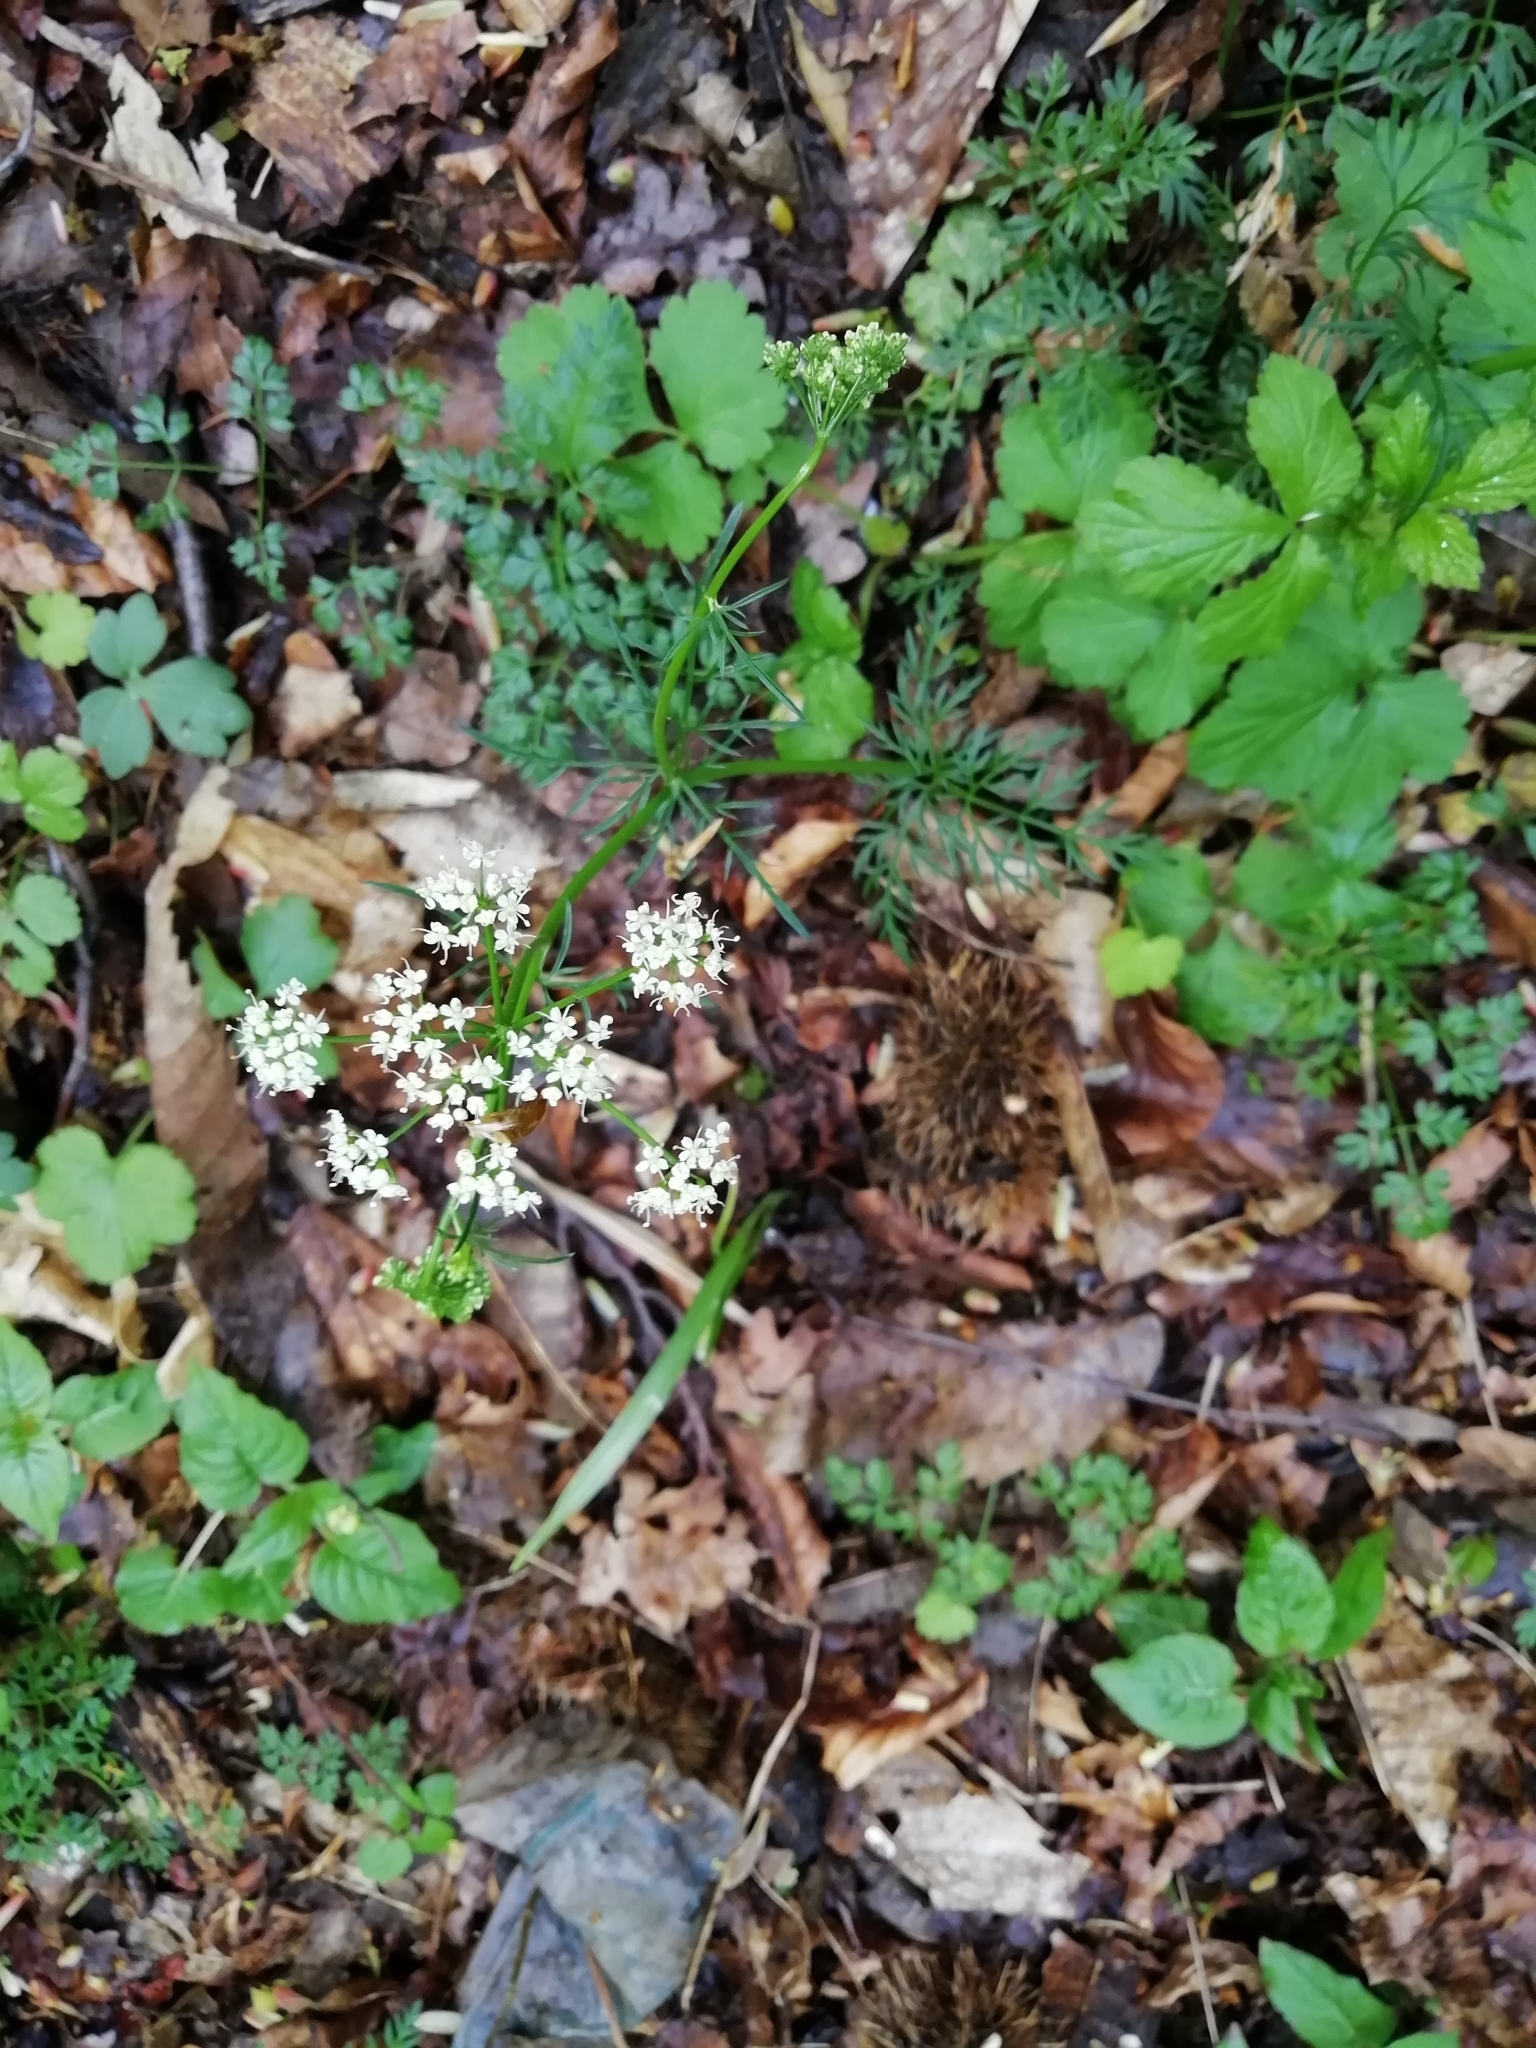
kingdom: Plantae
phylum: Tracheophyta
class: Magnoliopsida
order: Apiales
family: Apiaceae
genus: Conopodium
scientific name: Conopodium majus
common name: Pignut
